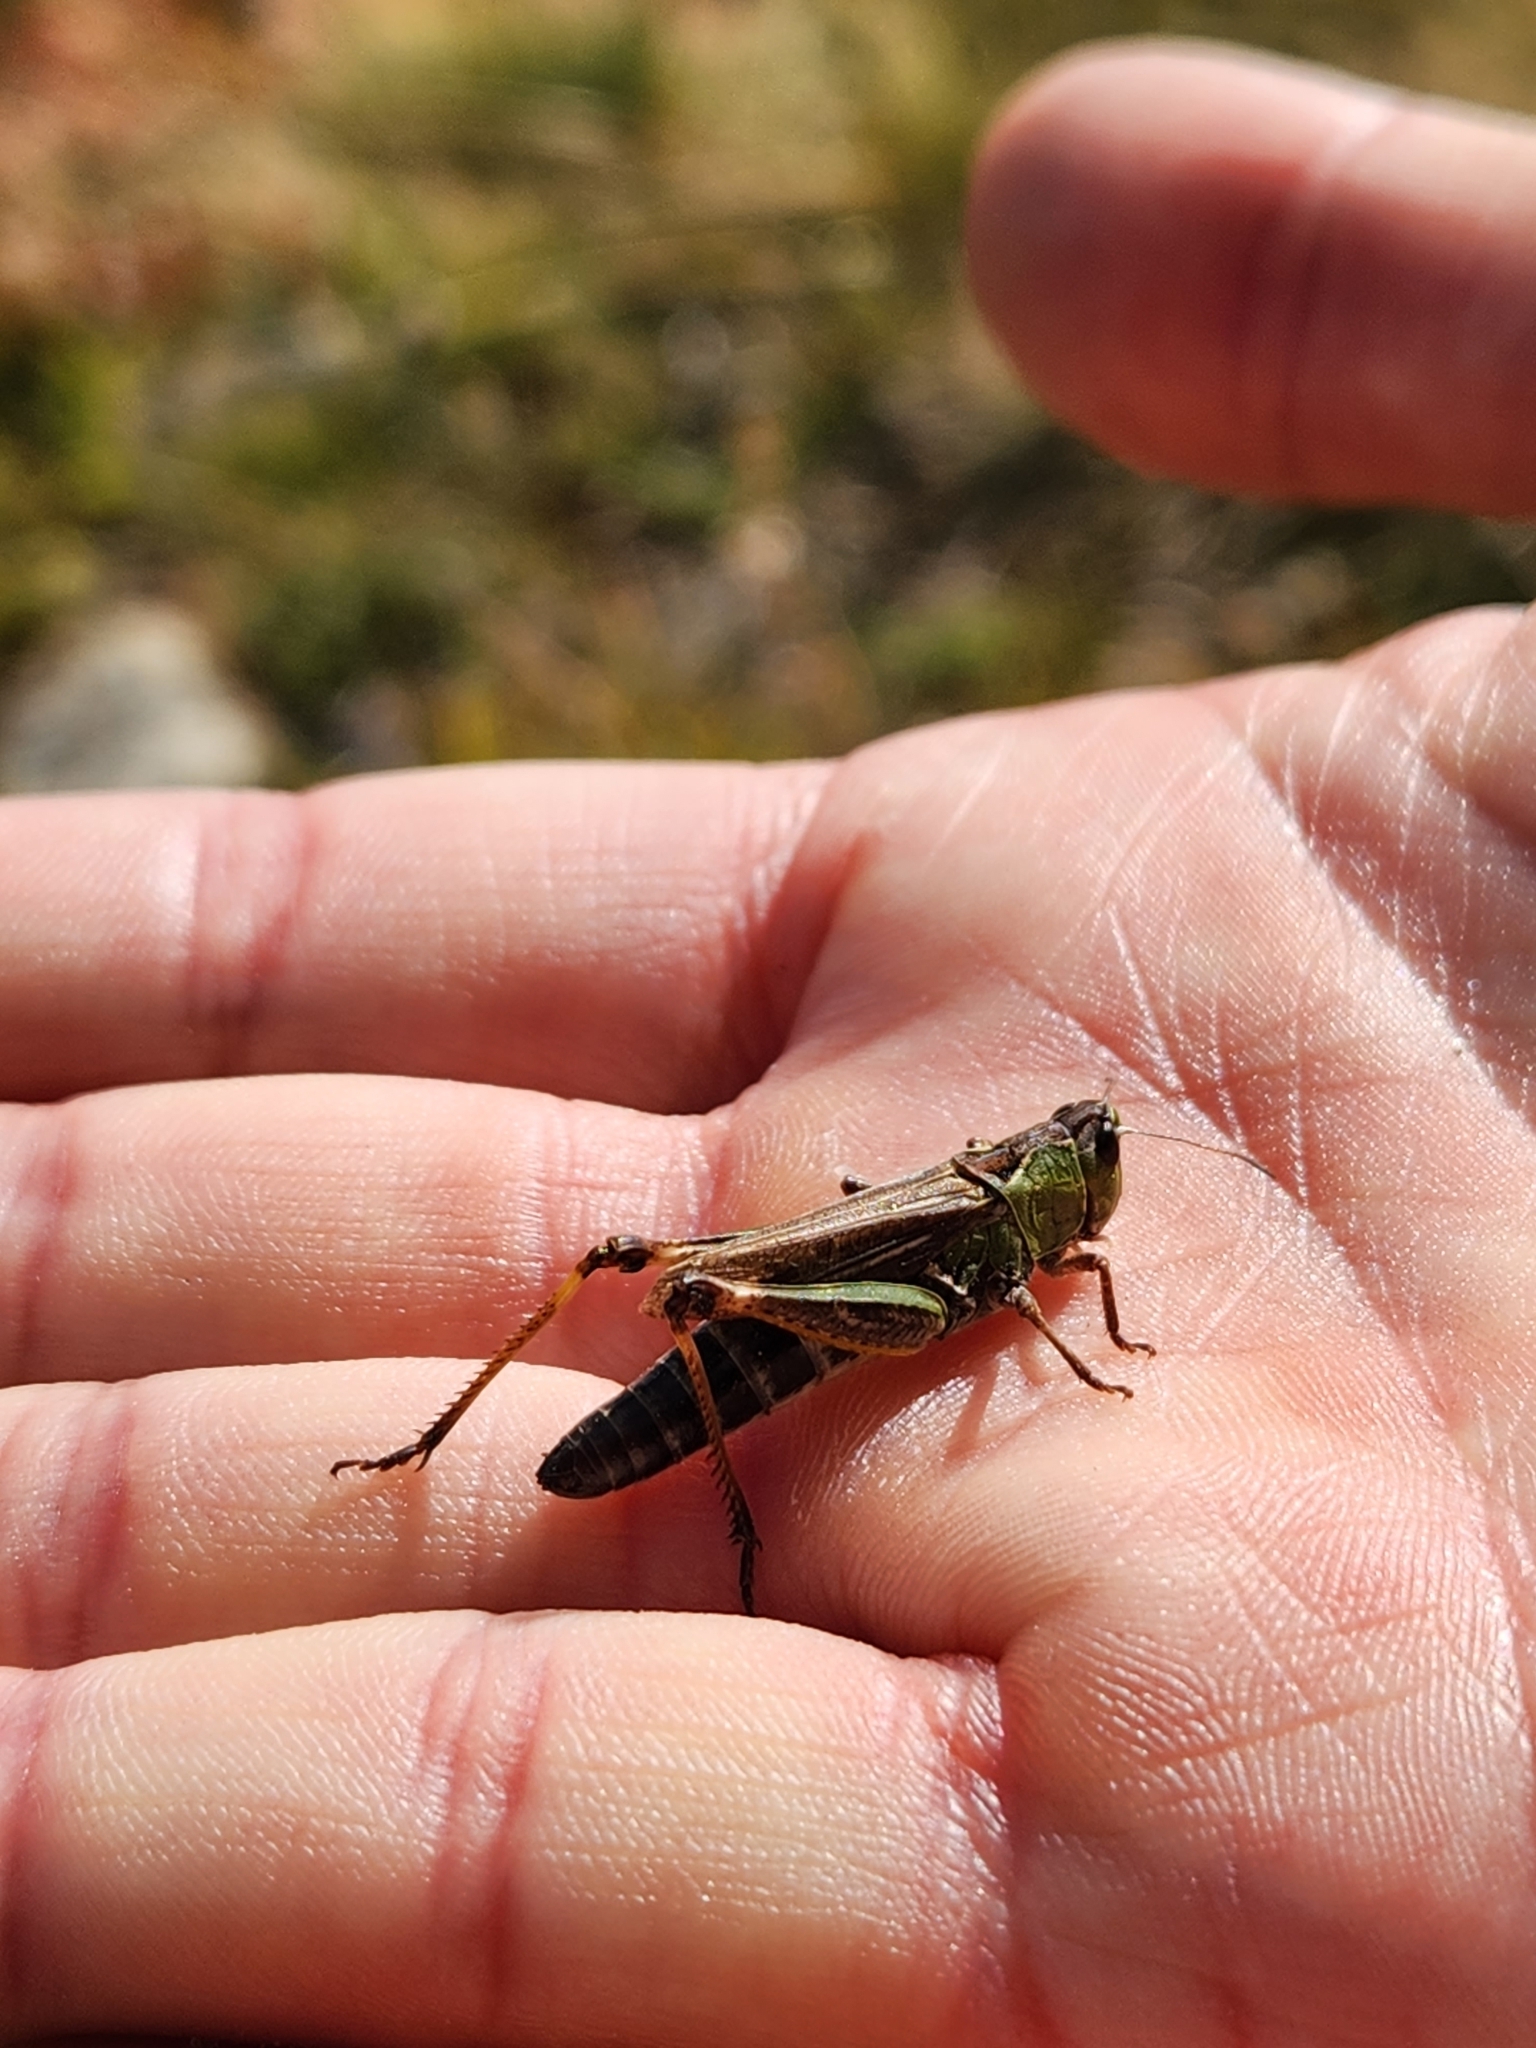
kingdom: Animalia
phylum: Arthropoda
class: Insecta
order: Orthoptera
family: Acrididae
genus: Gomphocerus
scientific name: Gomphocerus sibiricus
